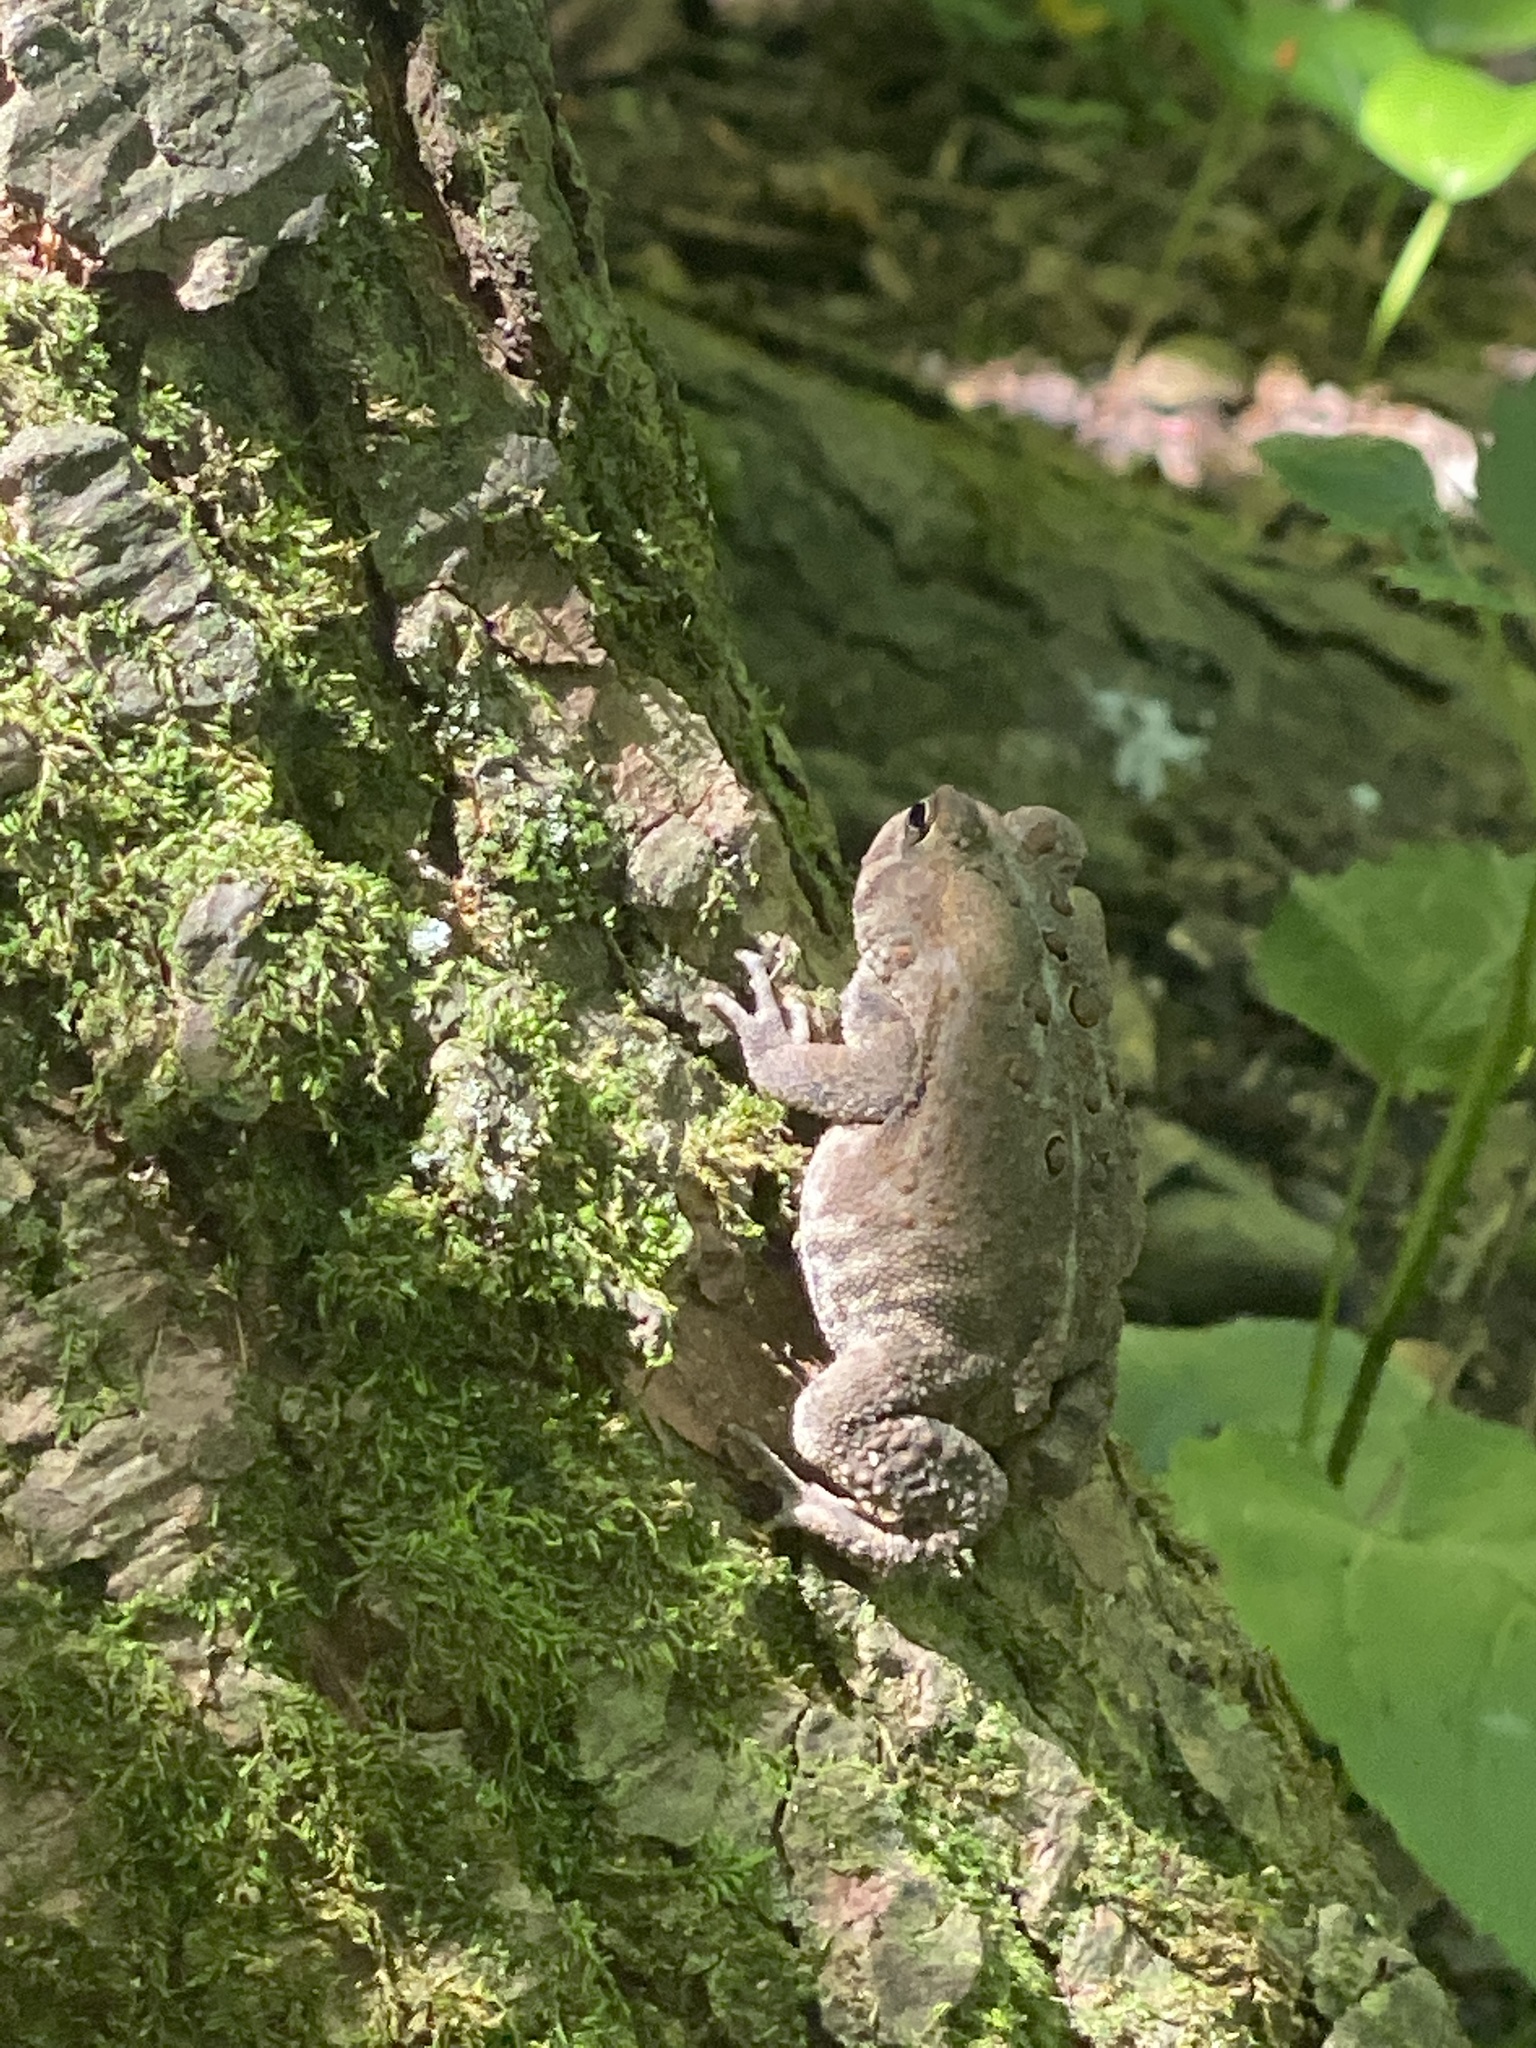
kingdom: Animalia
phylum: Chordata
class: Amphibia
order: Anura
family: Bufonidae
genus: Anaxyrus
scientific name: Anaxyrus americanus
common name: American toad
